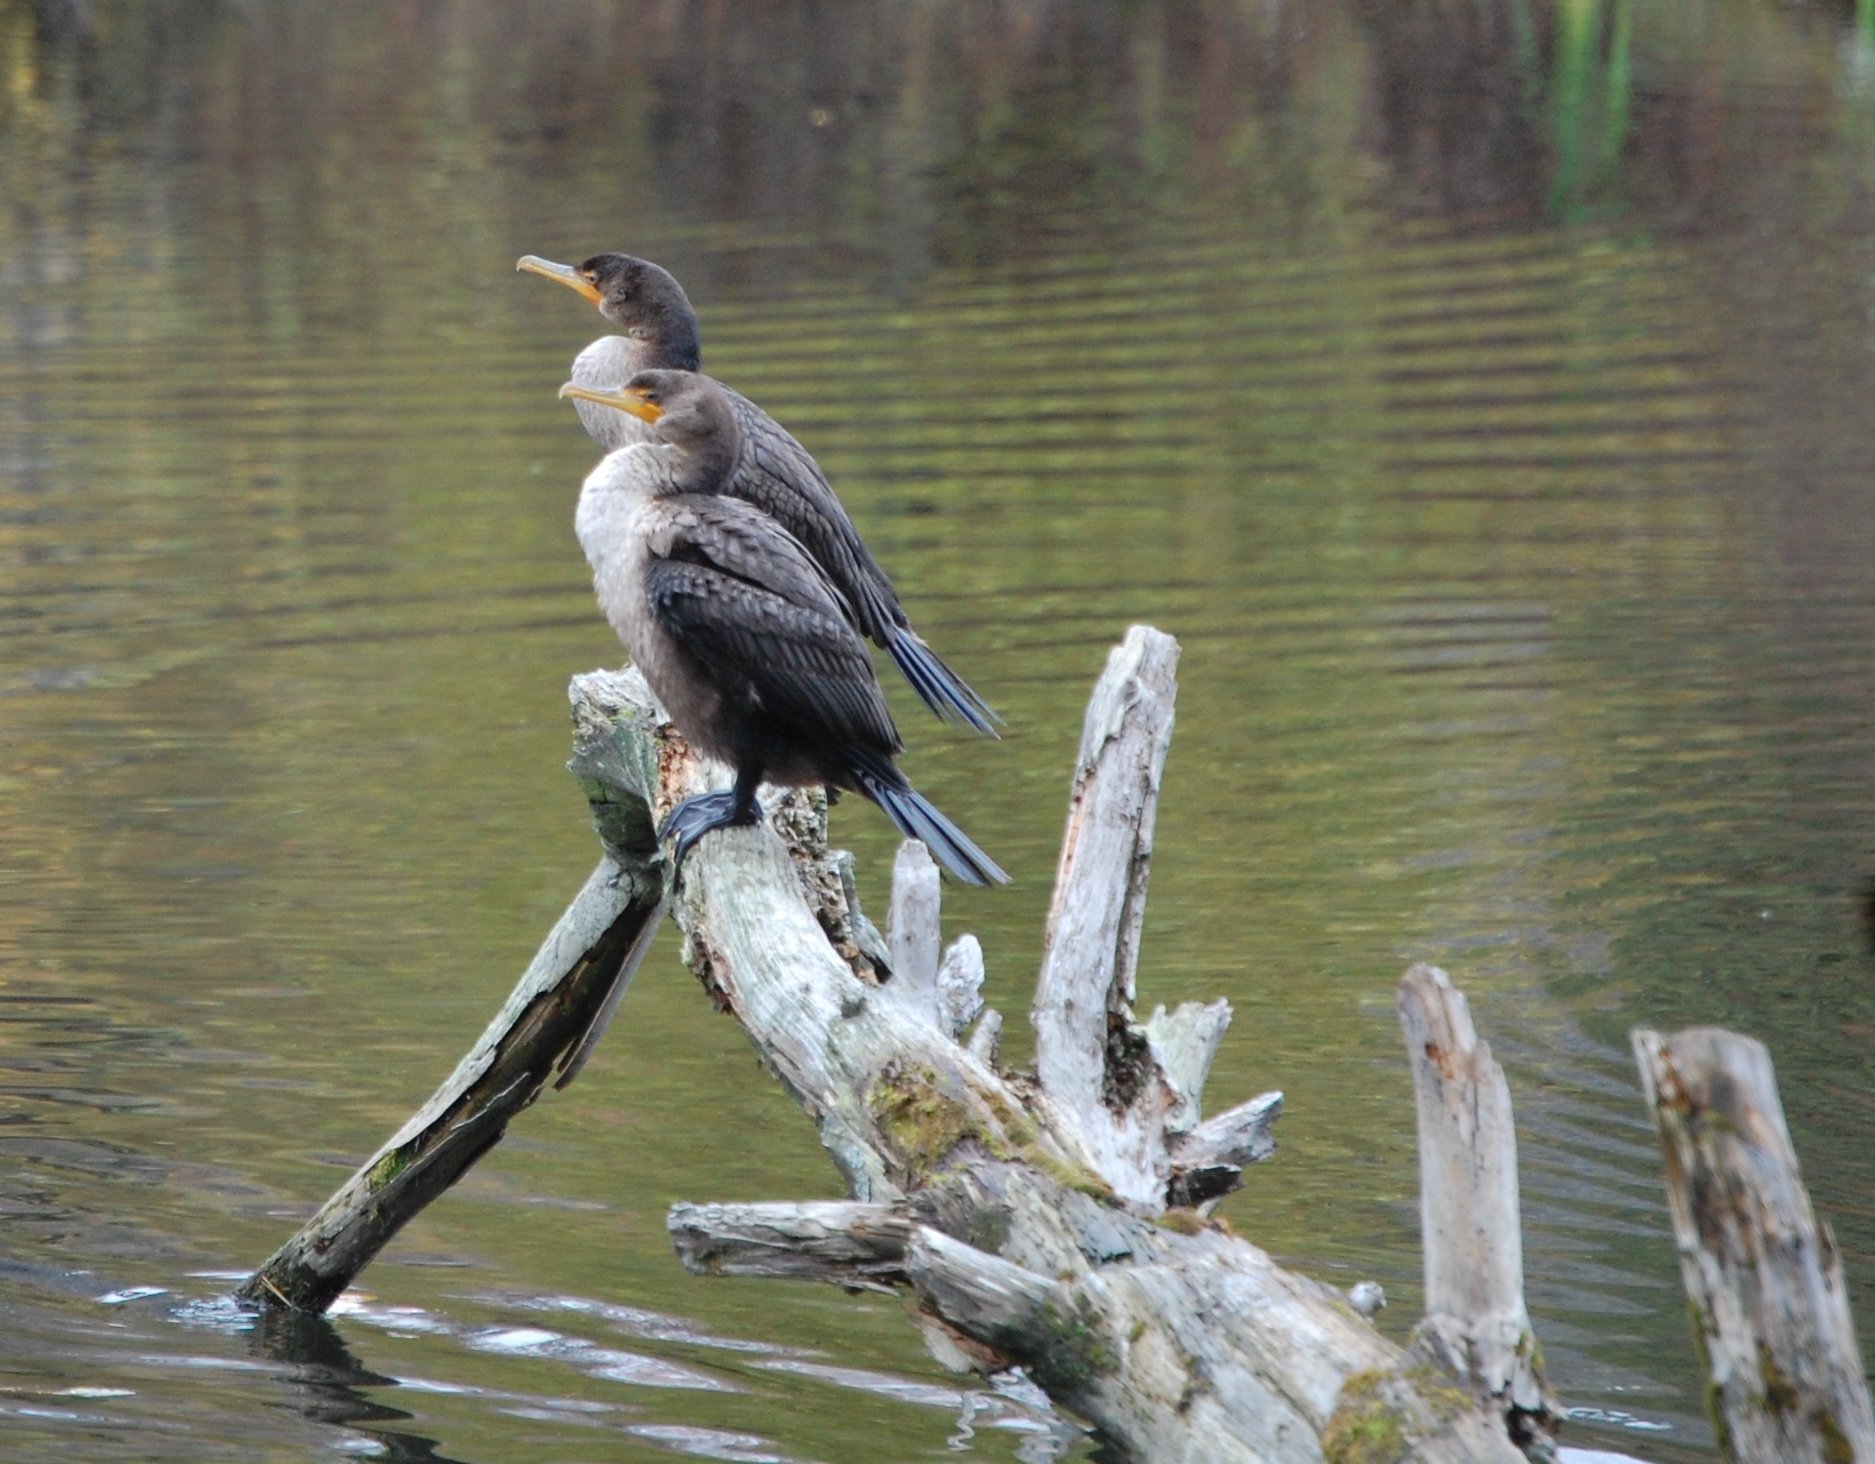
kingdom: Animalia
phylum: Chordata
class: Aves
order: Suliformes
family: Phalacrocoracidae
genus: Phalacrocorax
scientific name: Phalacrocorax auritus
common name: Double-crested cormorant
